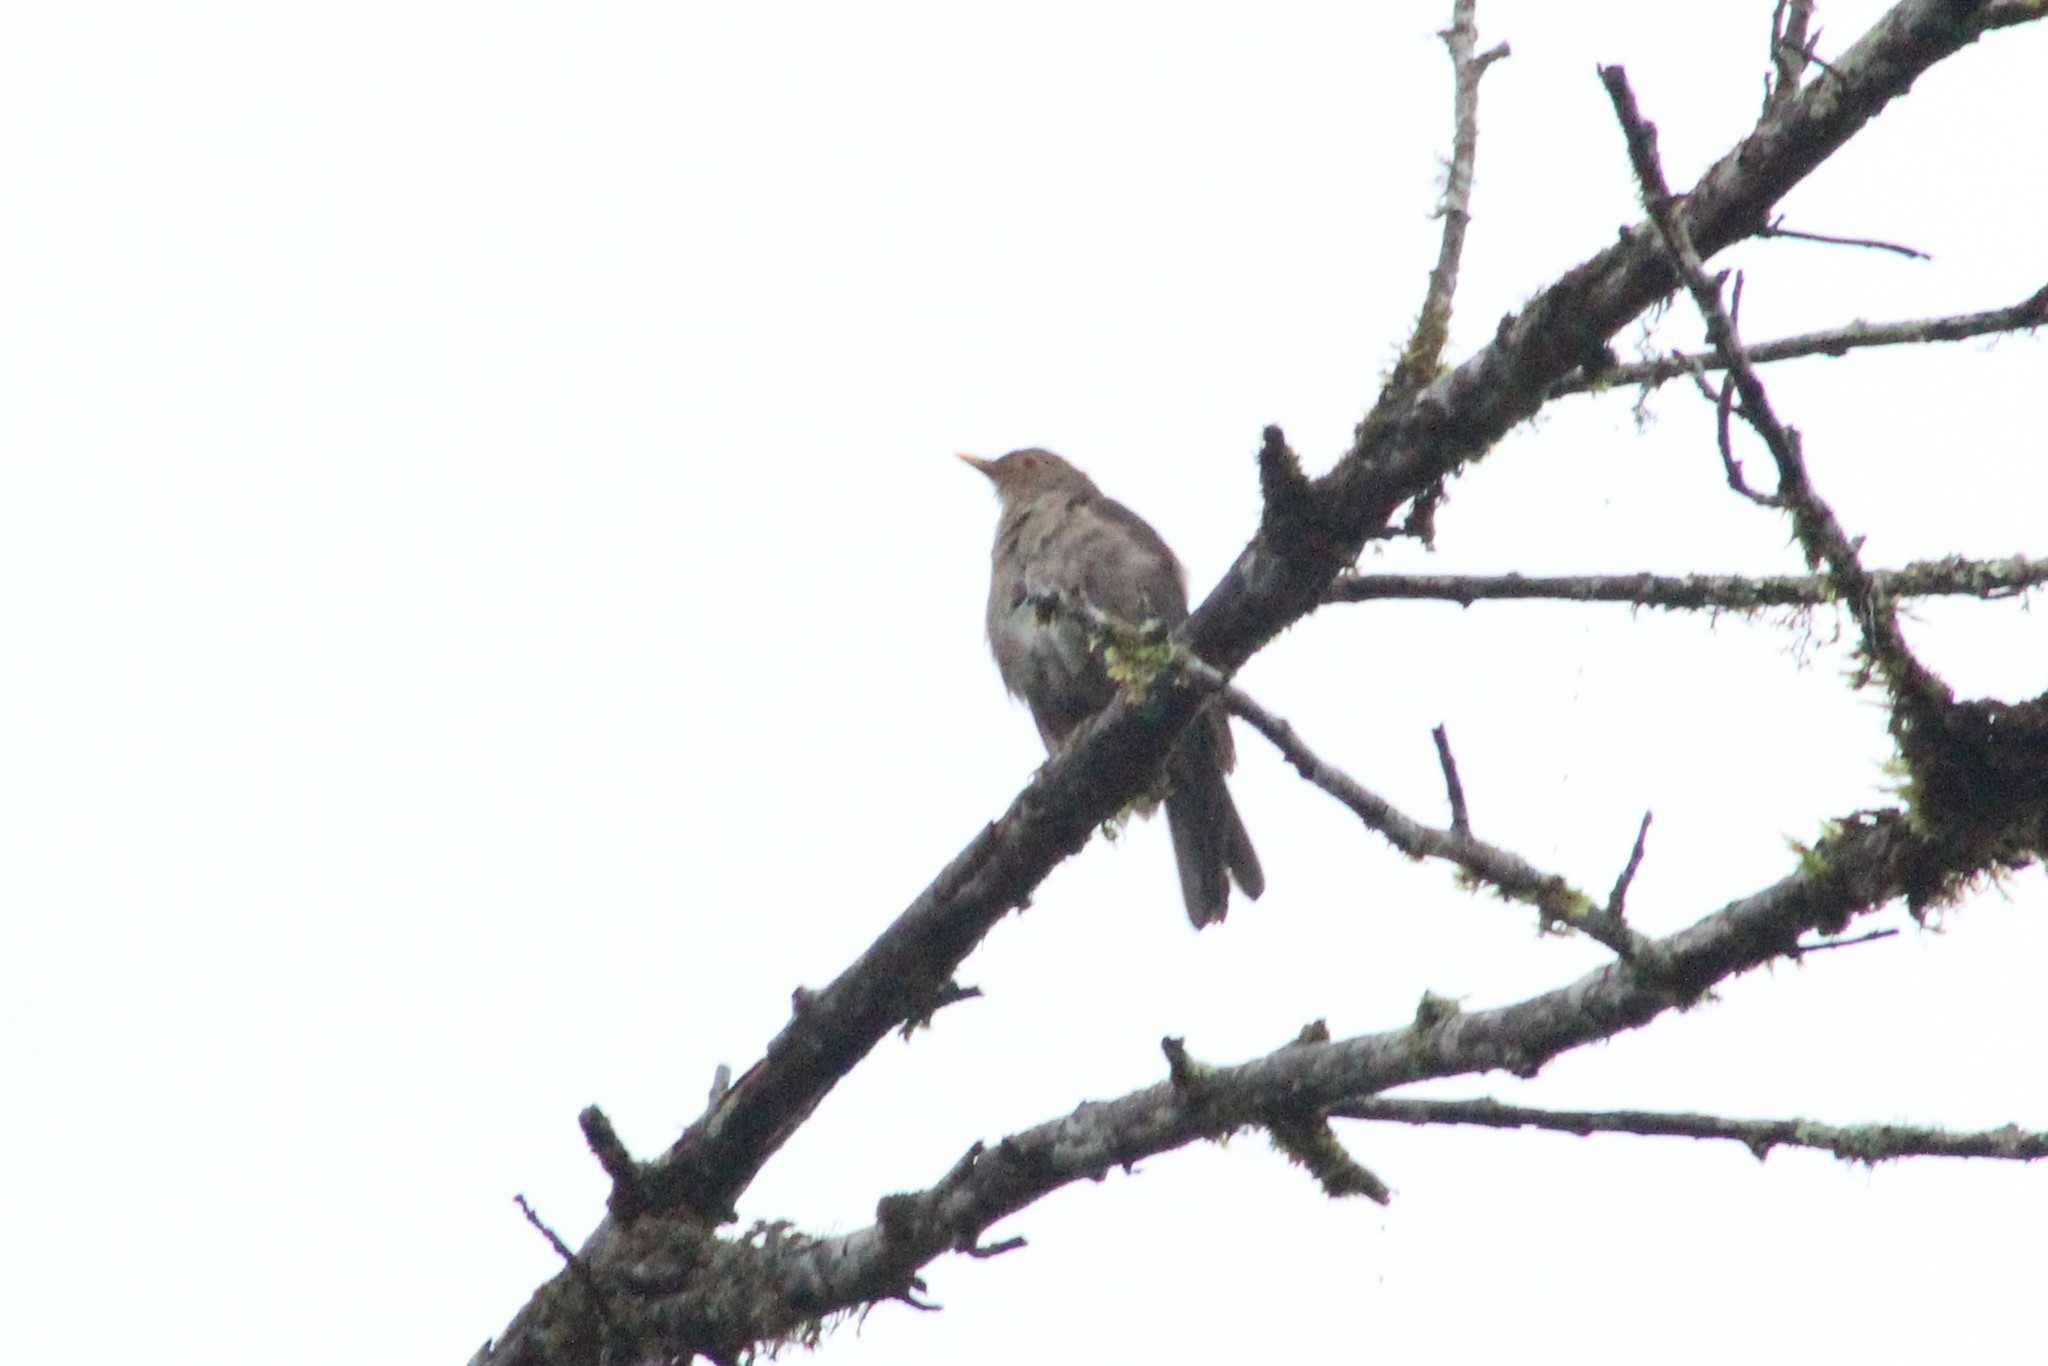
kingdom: Animalia
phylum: Chordata
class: Aves
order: Passeriformes
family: Turdidae
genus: Turdus
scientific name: Turdus maculirostris
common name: Ecuadorian thrush
